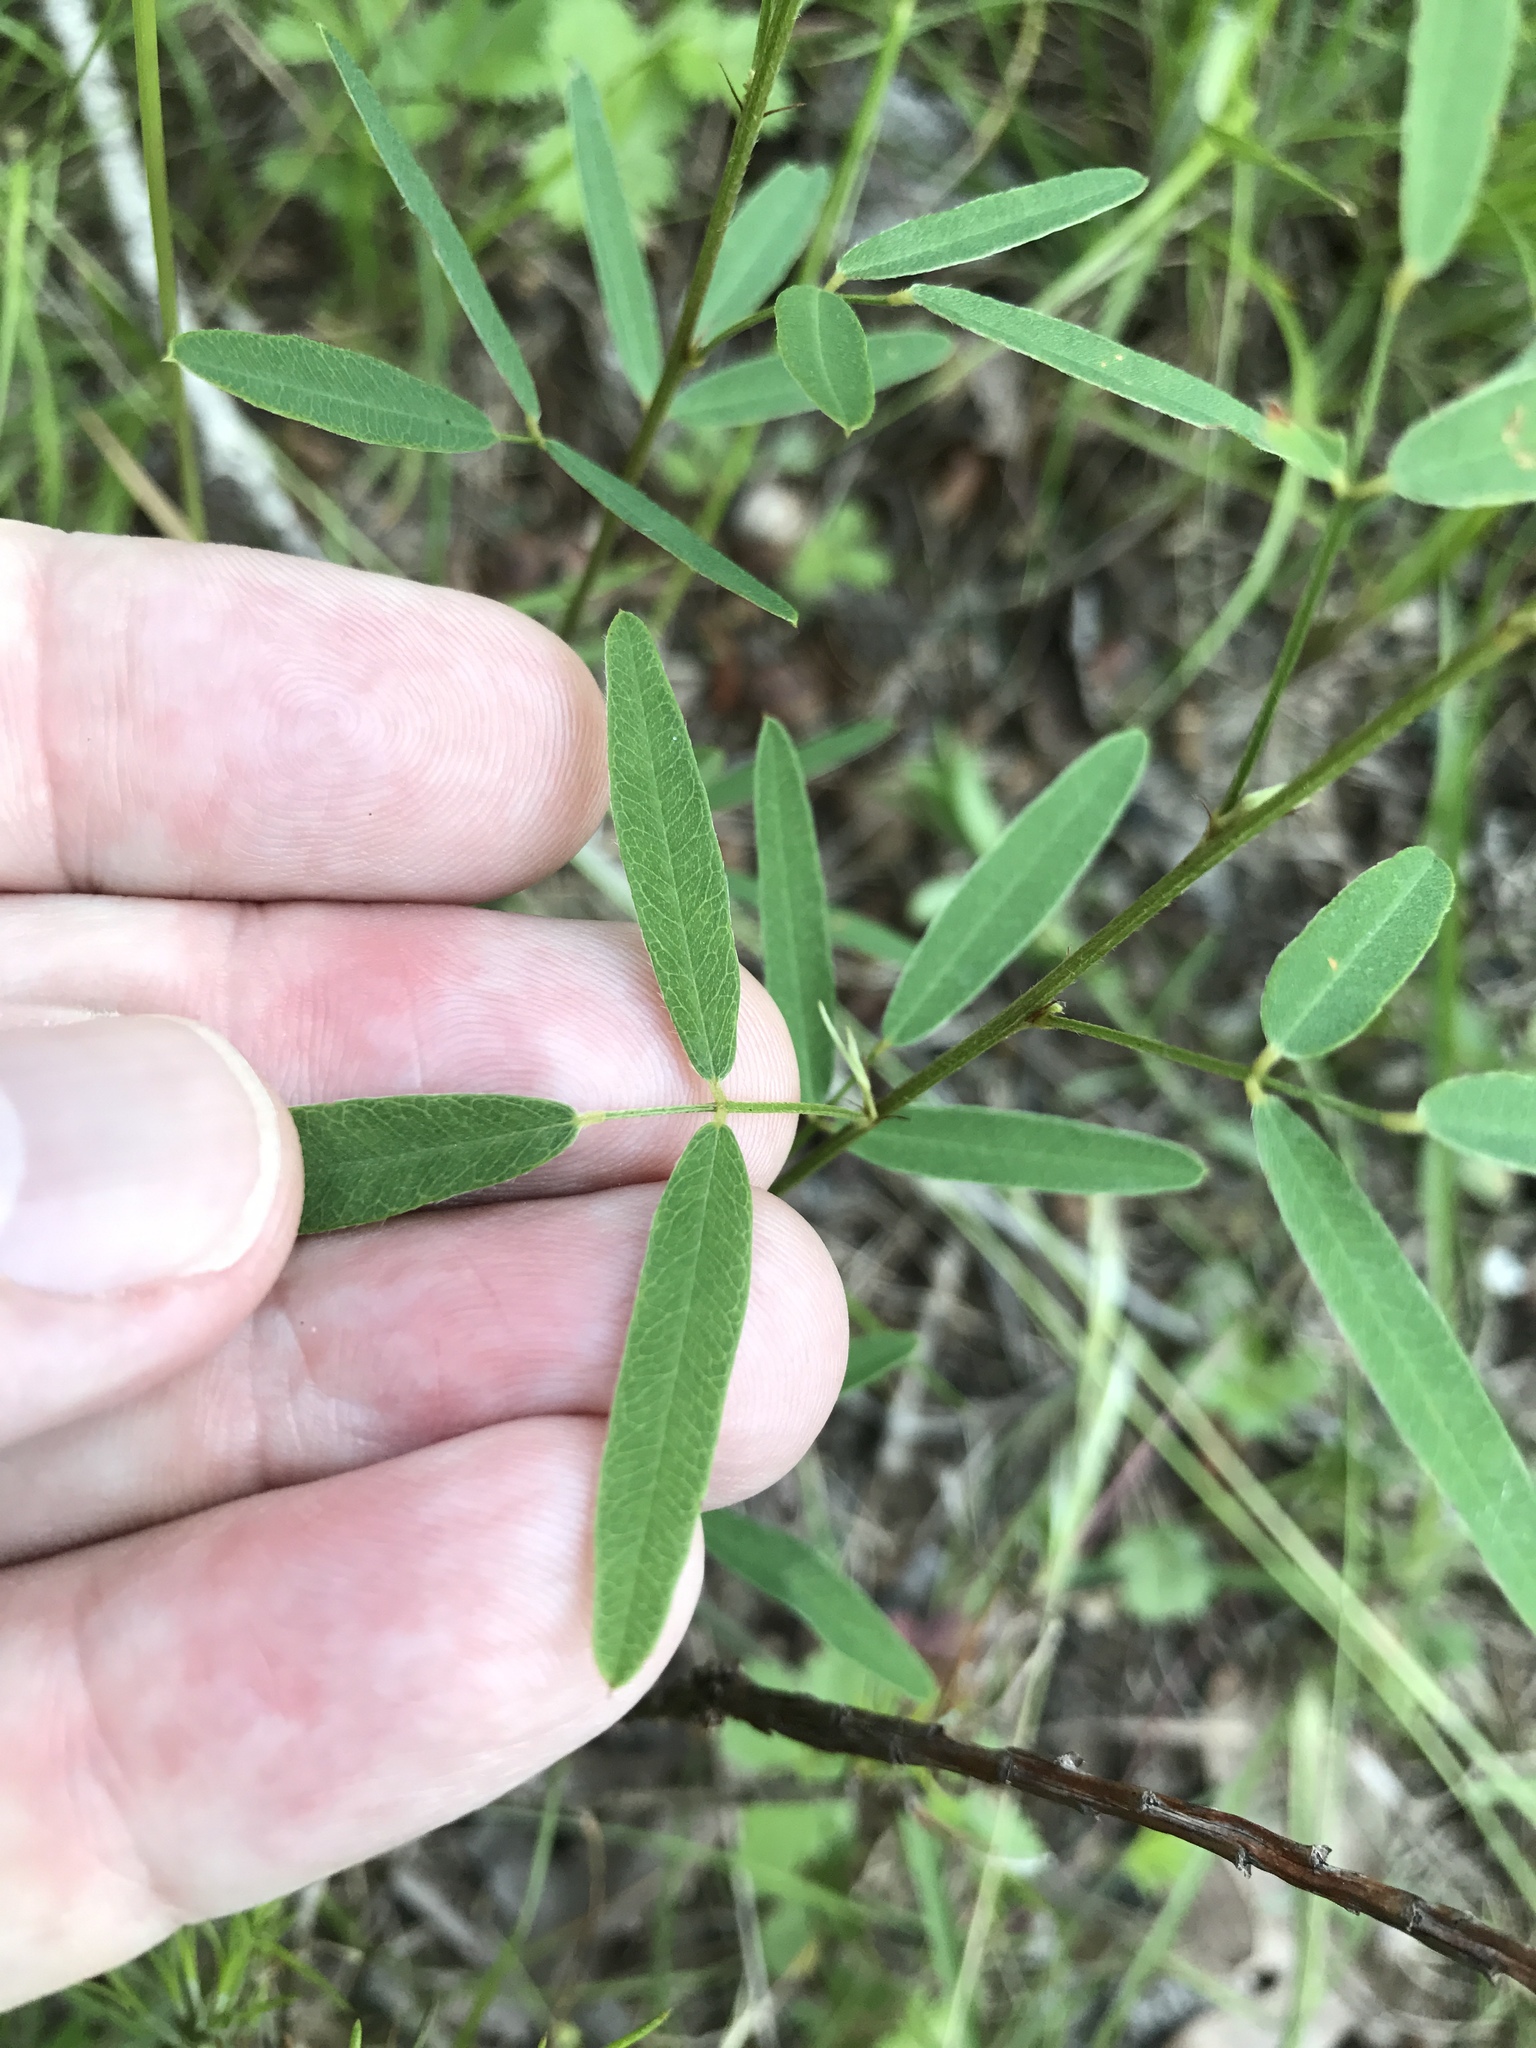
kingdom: Plantae
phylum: Tracheophyta
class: Magnoliopsida
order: Fabales
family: Fabaceae
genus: Lespedeza
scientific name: Lespedeza virginica
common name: Slender bush-clover
